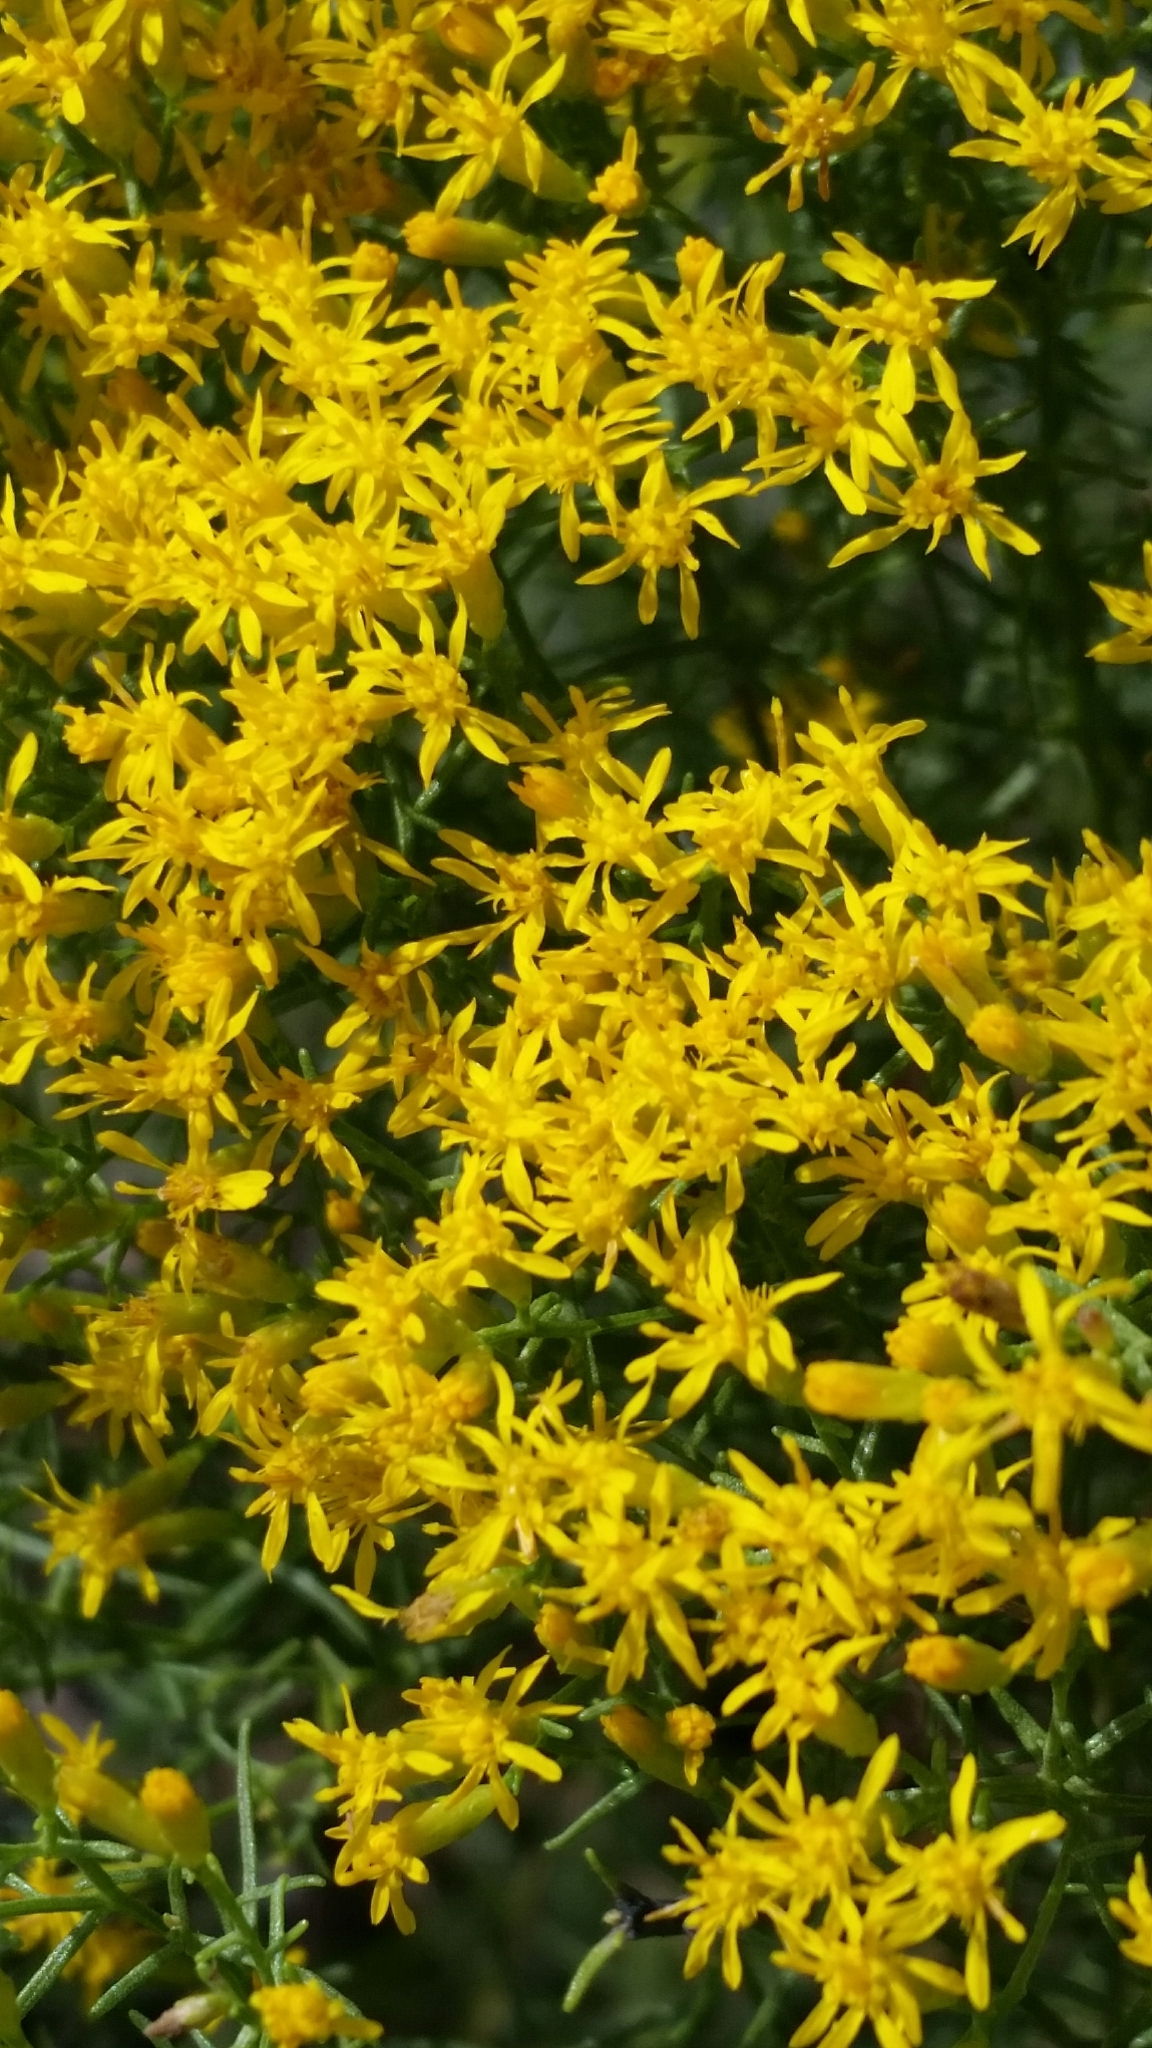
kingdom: Plantae
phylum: Tracheophyta
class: Magnoliopsida
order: Asterales
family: Asteraceae
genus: Euthamia
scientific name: Euthamia caroliniana
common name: Coastal plain goldentop
